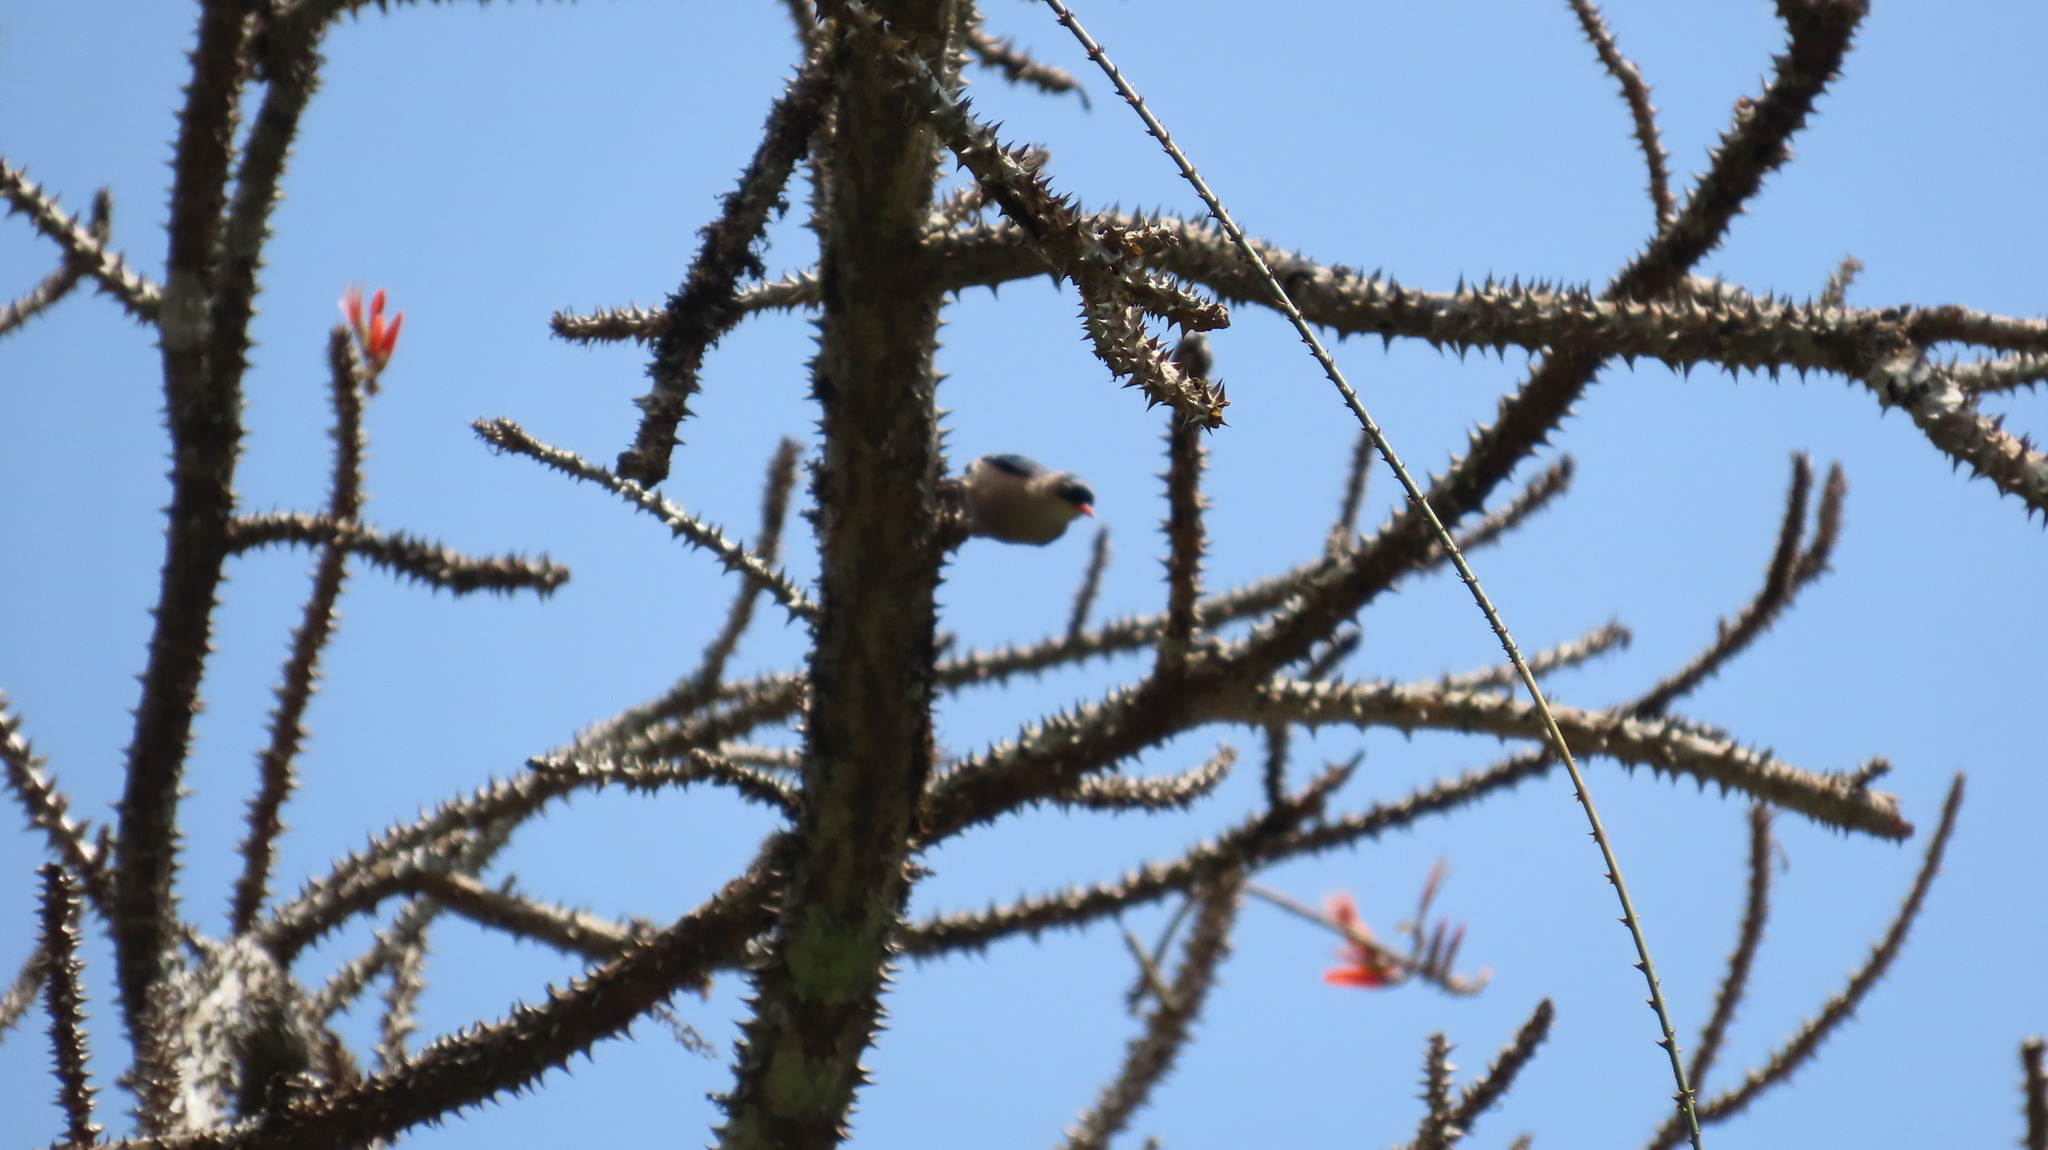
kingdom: Animalia
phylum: Chordata
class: Aves
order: Passeriformes
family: Sittidae
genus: Sitta
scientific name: Sitta frontalis
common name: Velvet-fronted nuthatch
